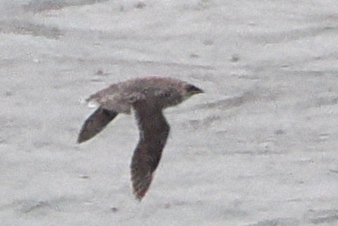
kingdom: Animalia
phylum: Chordata
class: Aves
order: Charadriiformes
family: Alcidae
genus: Brachyramphus
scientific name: Brachyramphus brevirostris
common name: Kittlitz's murrelet
